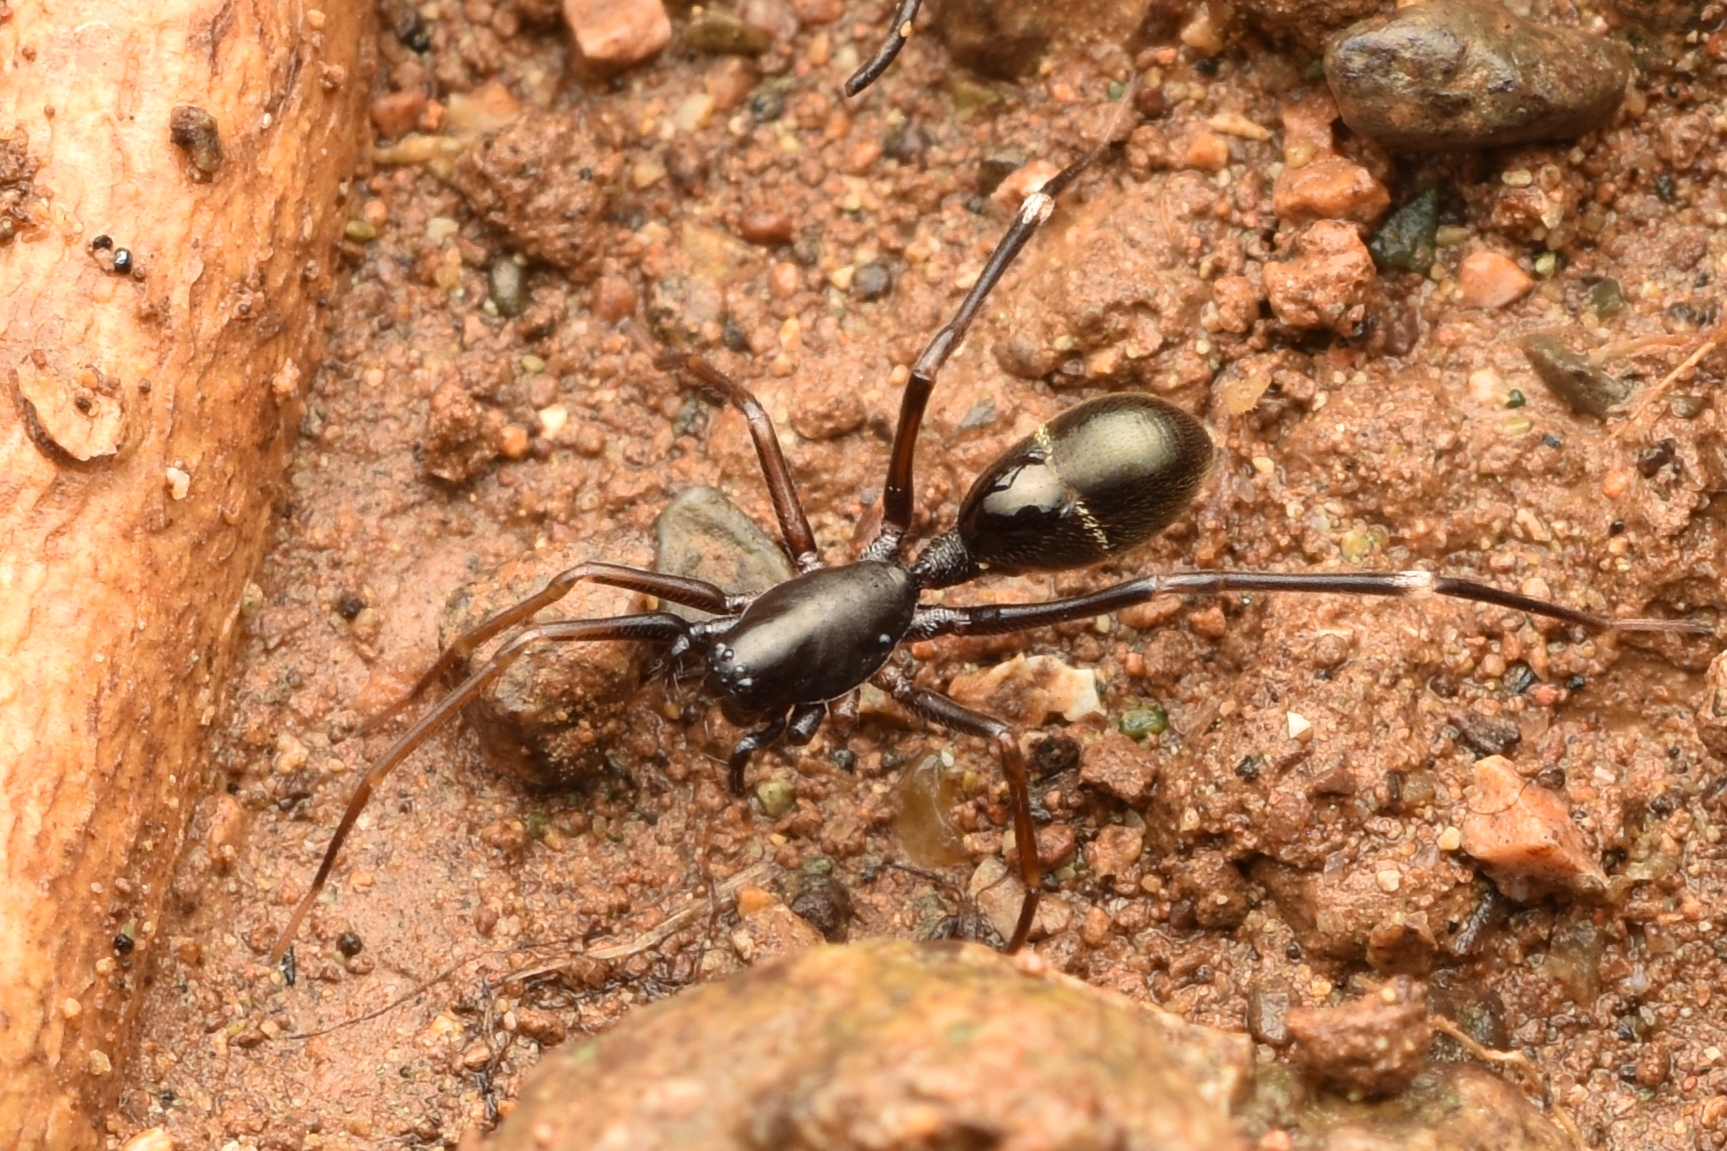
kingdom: Animalia
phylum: Arthropoda
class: Arachnida
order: Araneae
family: Corinnidae
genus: Mazax
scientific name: Mazax spinosa
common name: Corinnid sac spiders
